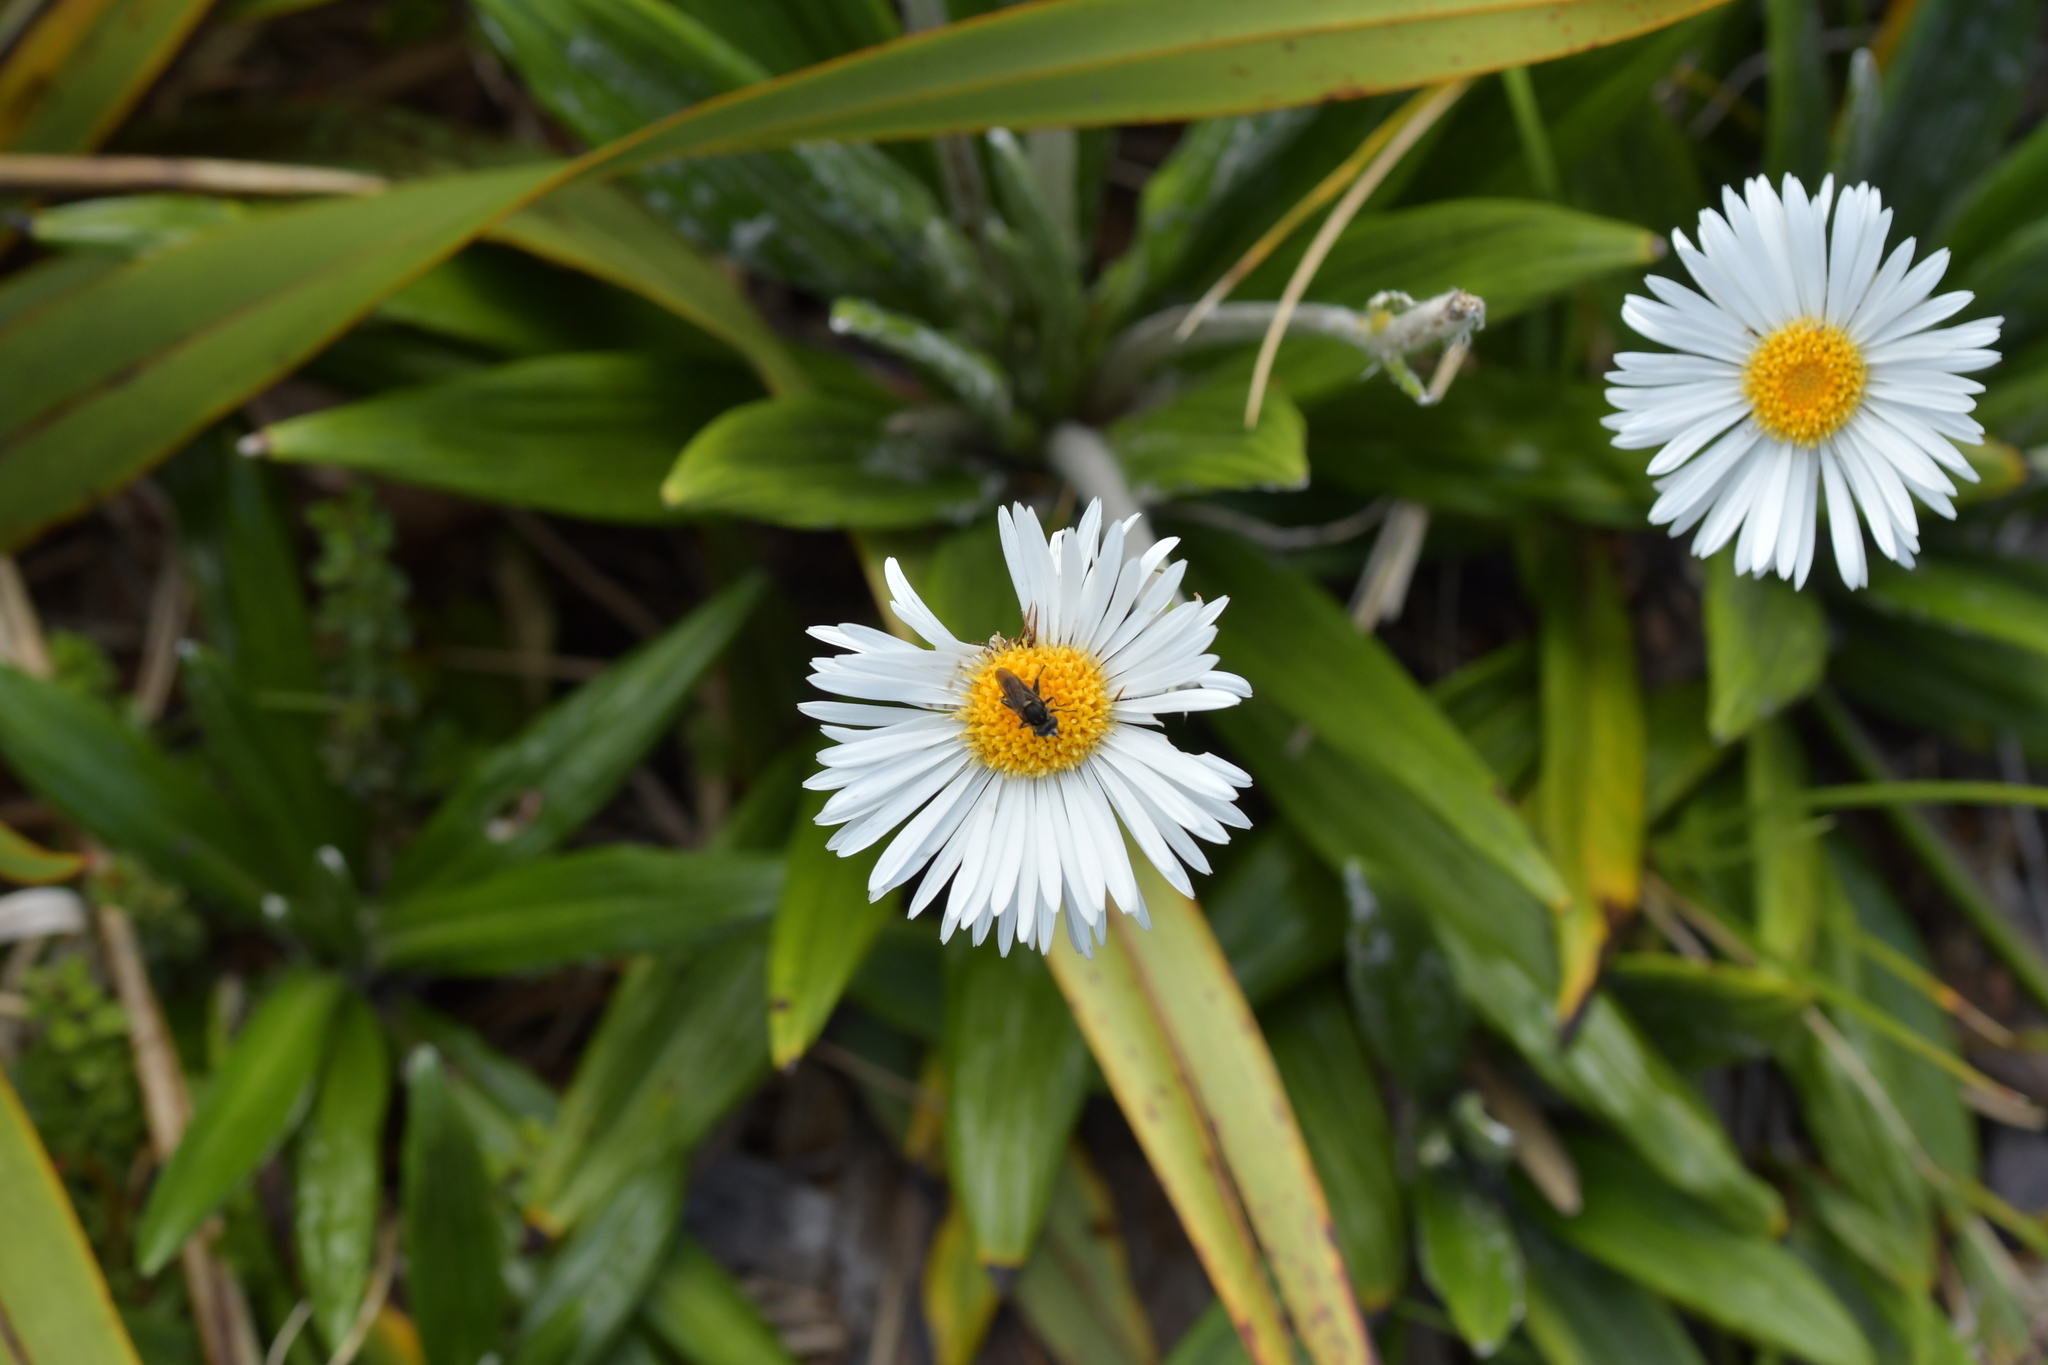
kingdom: Plantae
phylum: Tracheophyta
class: Magnoliopsida
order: Asterales
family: Asteraceae
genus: Celmisia
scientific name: Celmisia spectabilis
